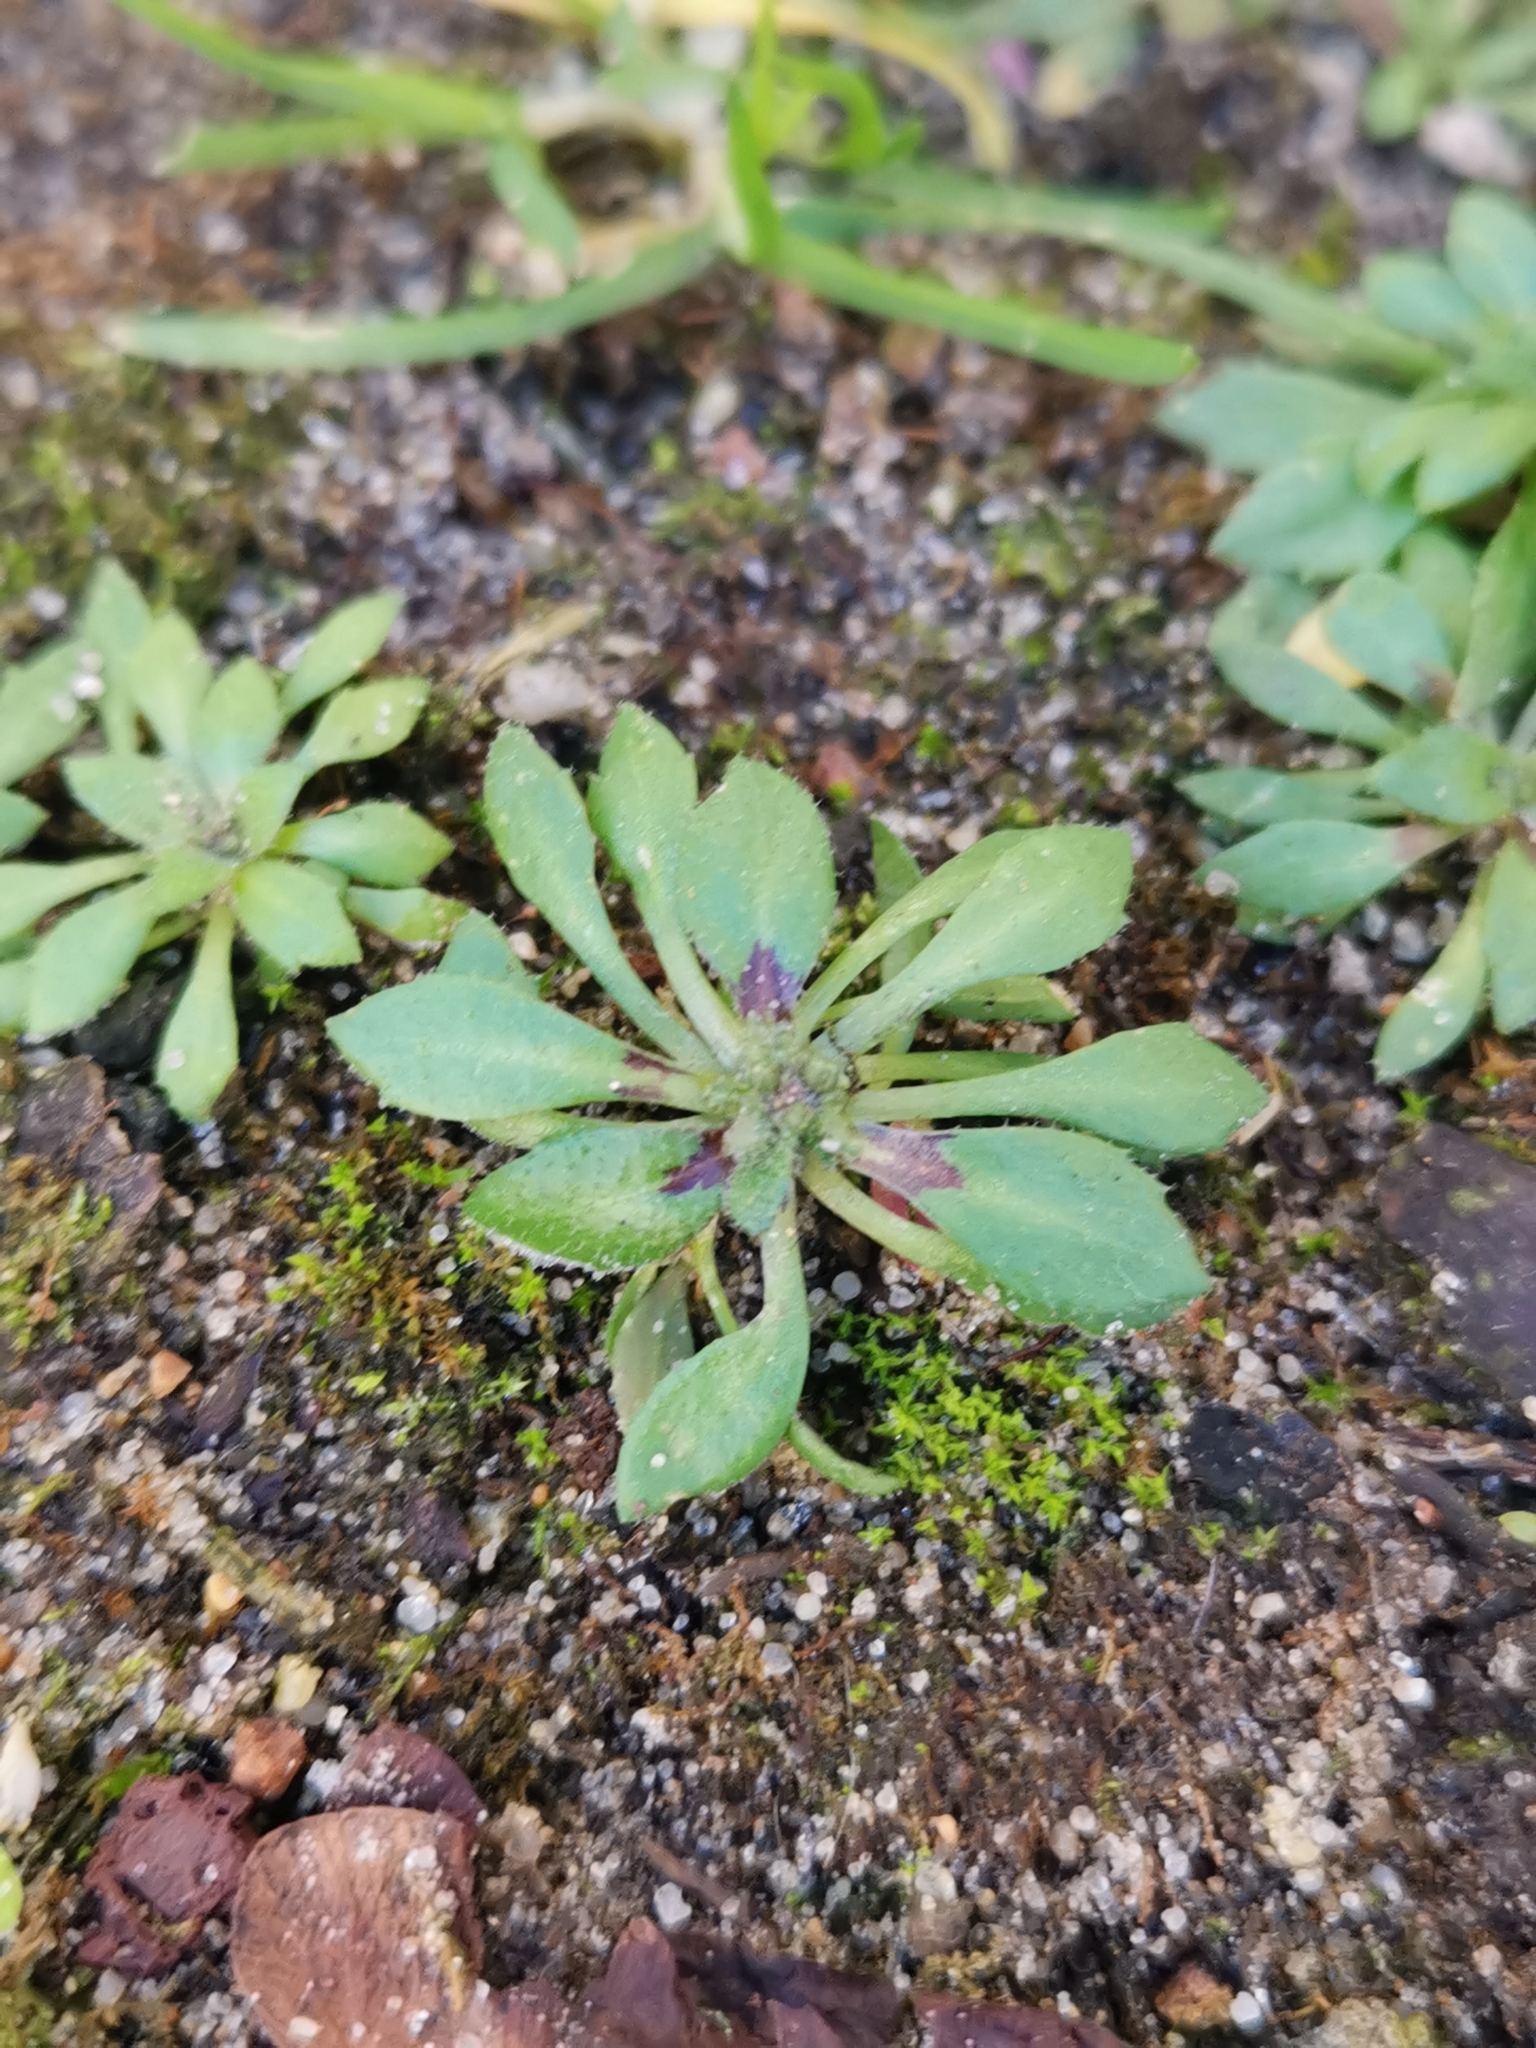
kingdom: Plantae
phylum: Tracheophyta
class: Magnoliopsida
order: Brassicales
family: Brassicaceae
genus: Draba
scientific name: Draba verna
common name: Spring draba
